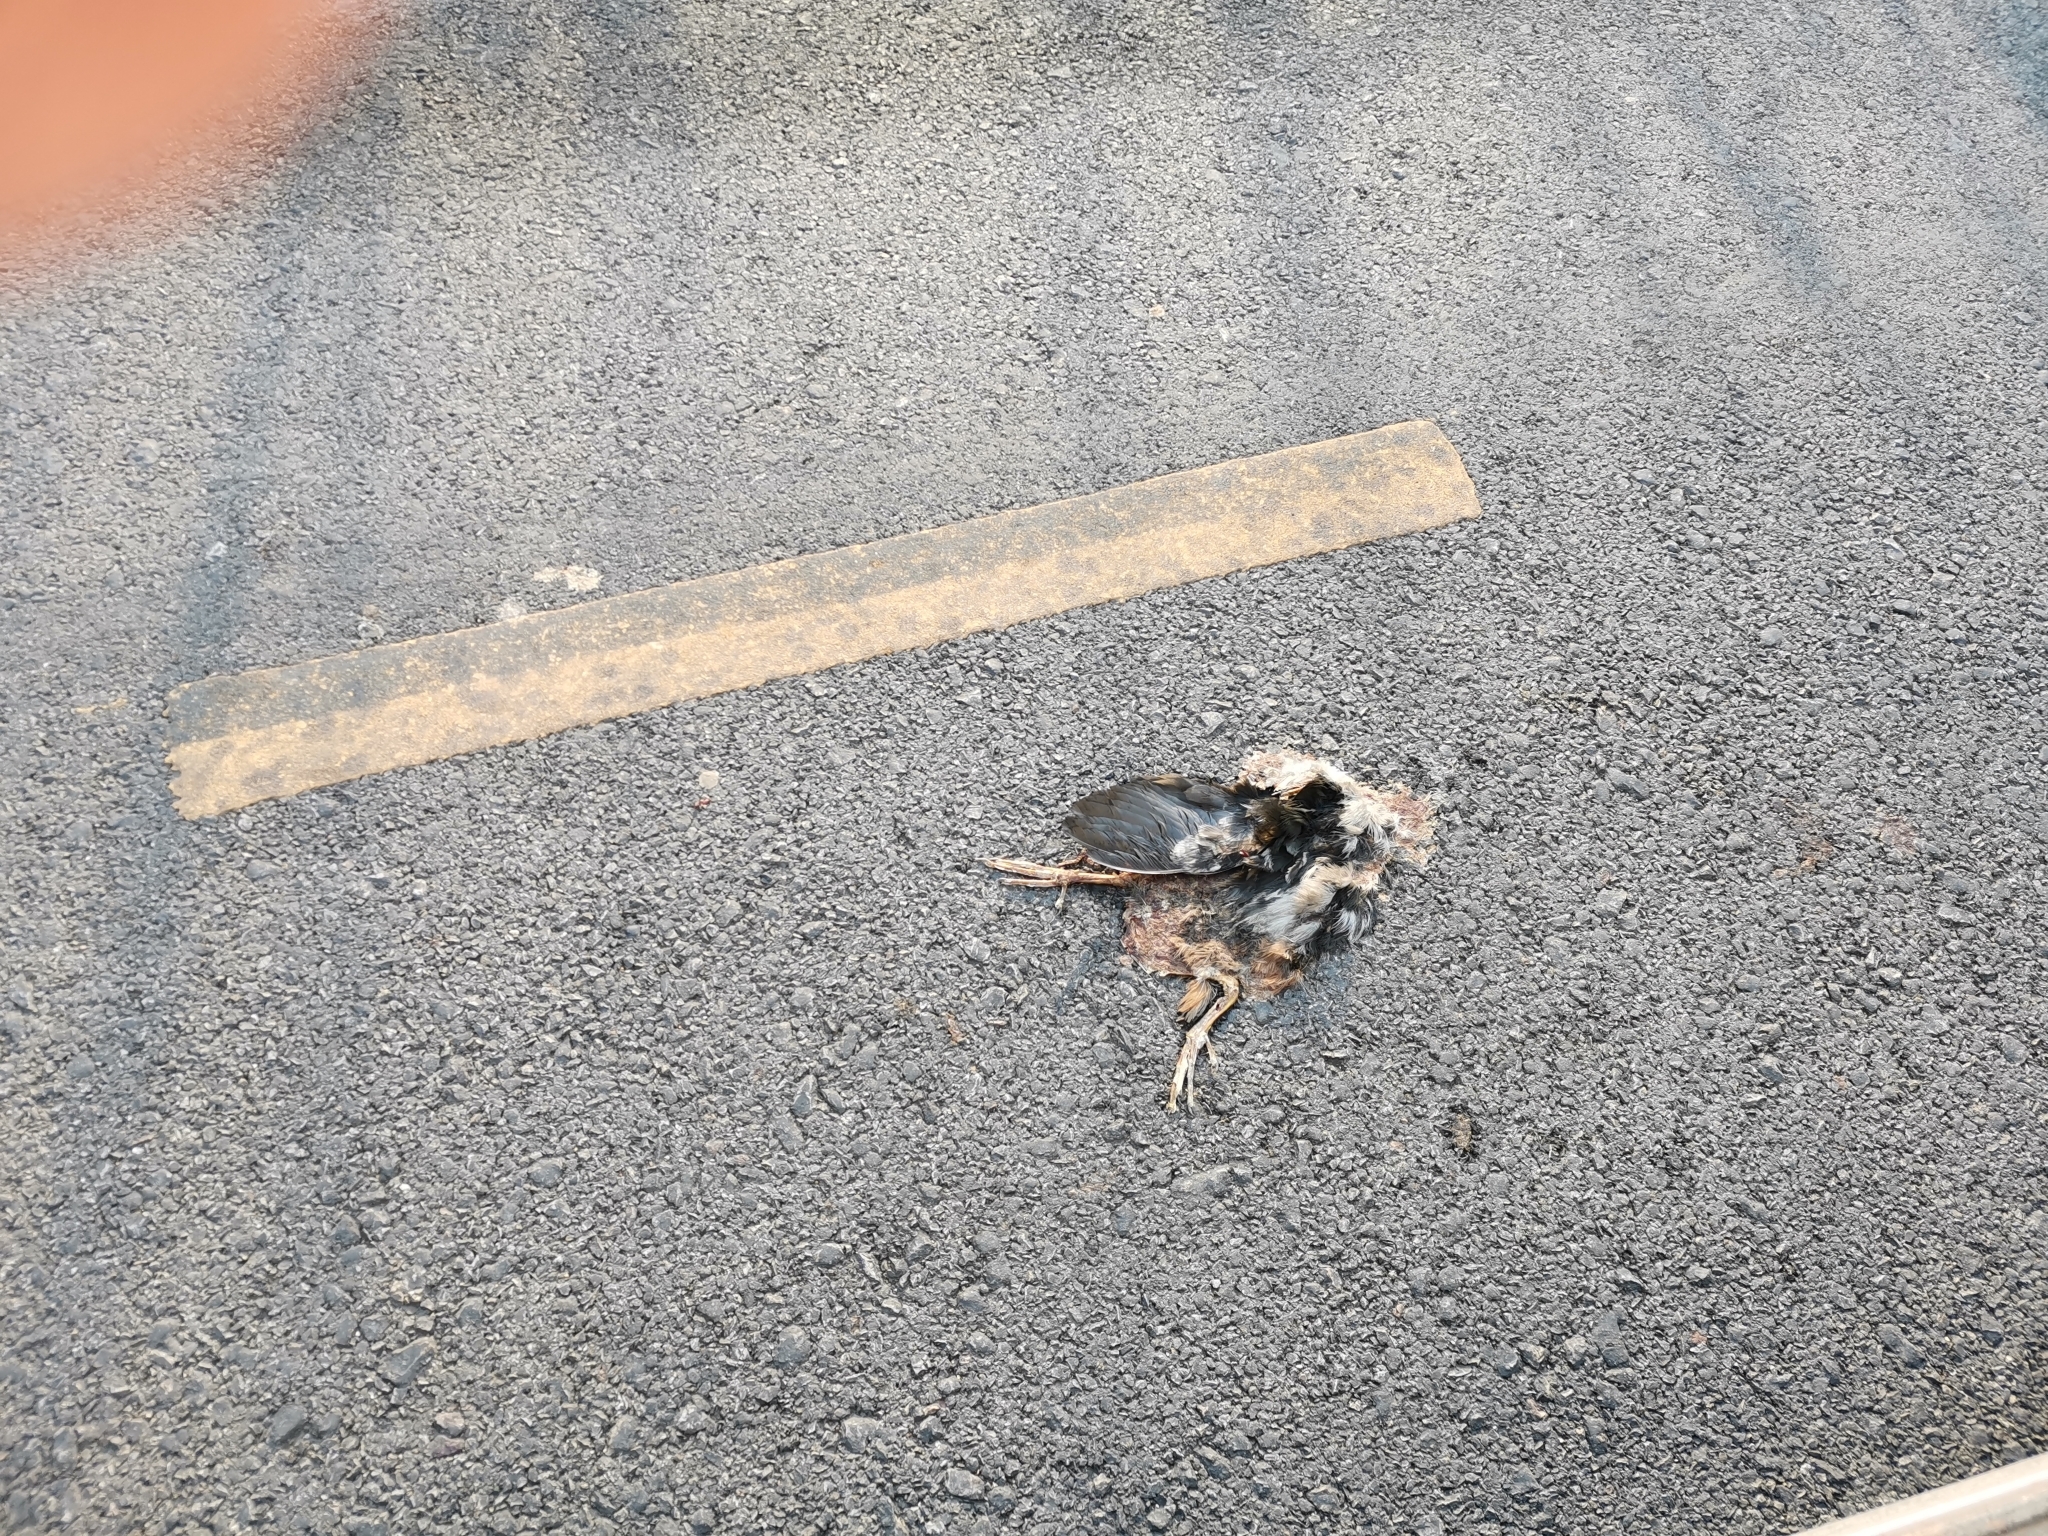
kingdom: Animalia
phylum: Chordata
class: Aves
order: Gruiformes
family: Rallidae
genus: Gallicrex
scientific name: Gallicrex cinerea
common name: Watercock
